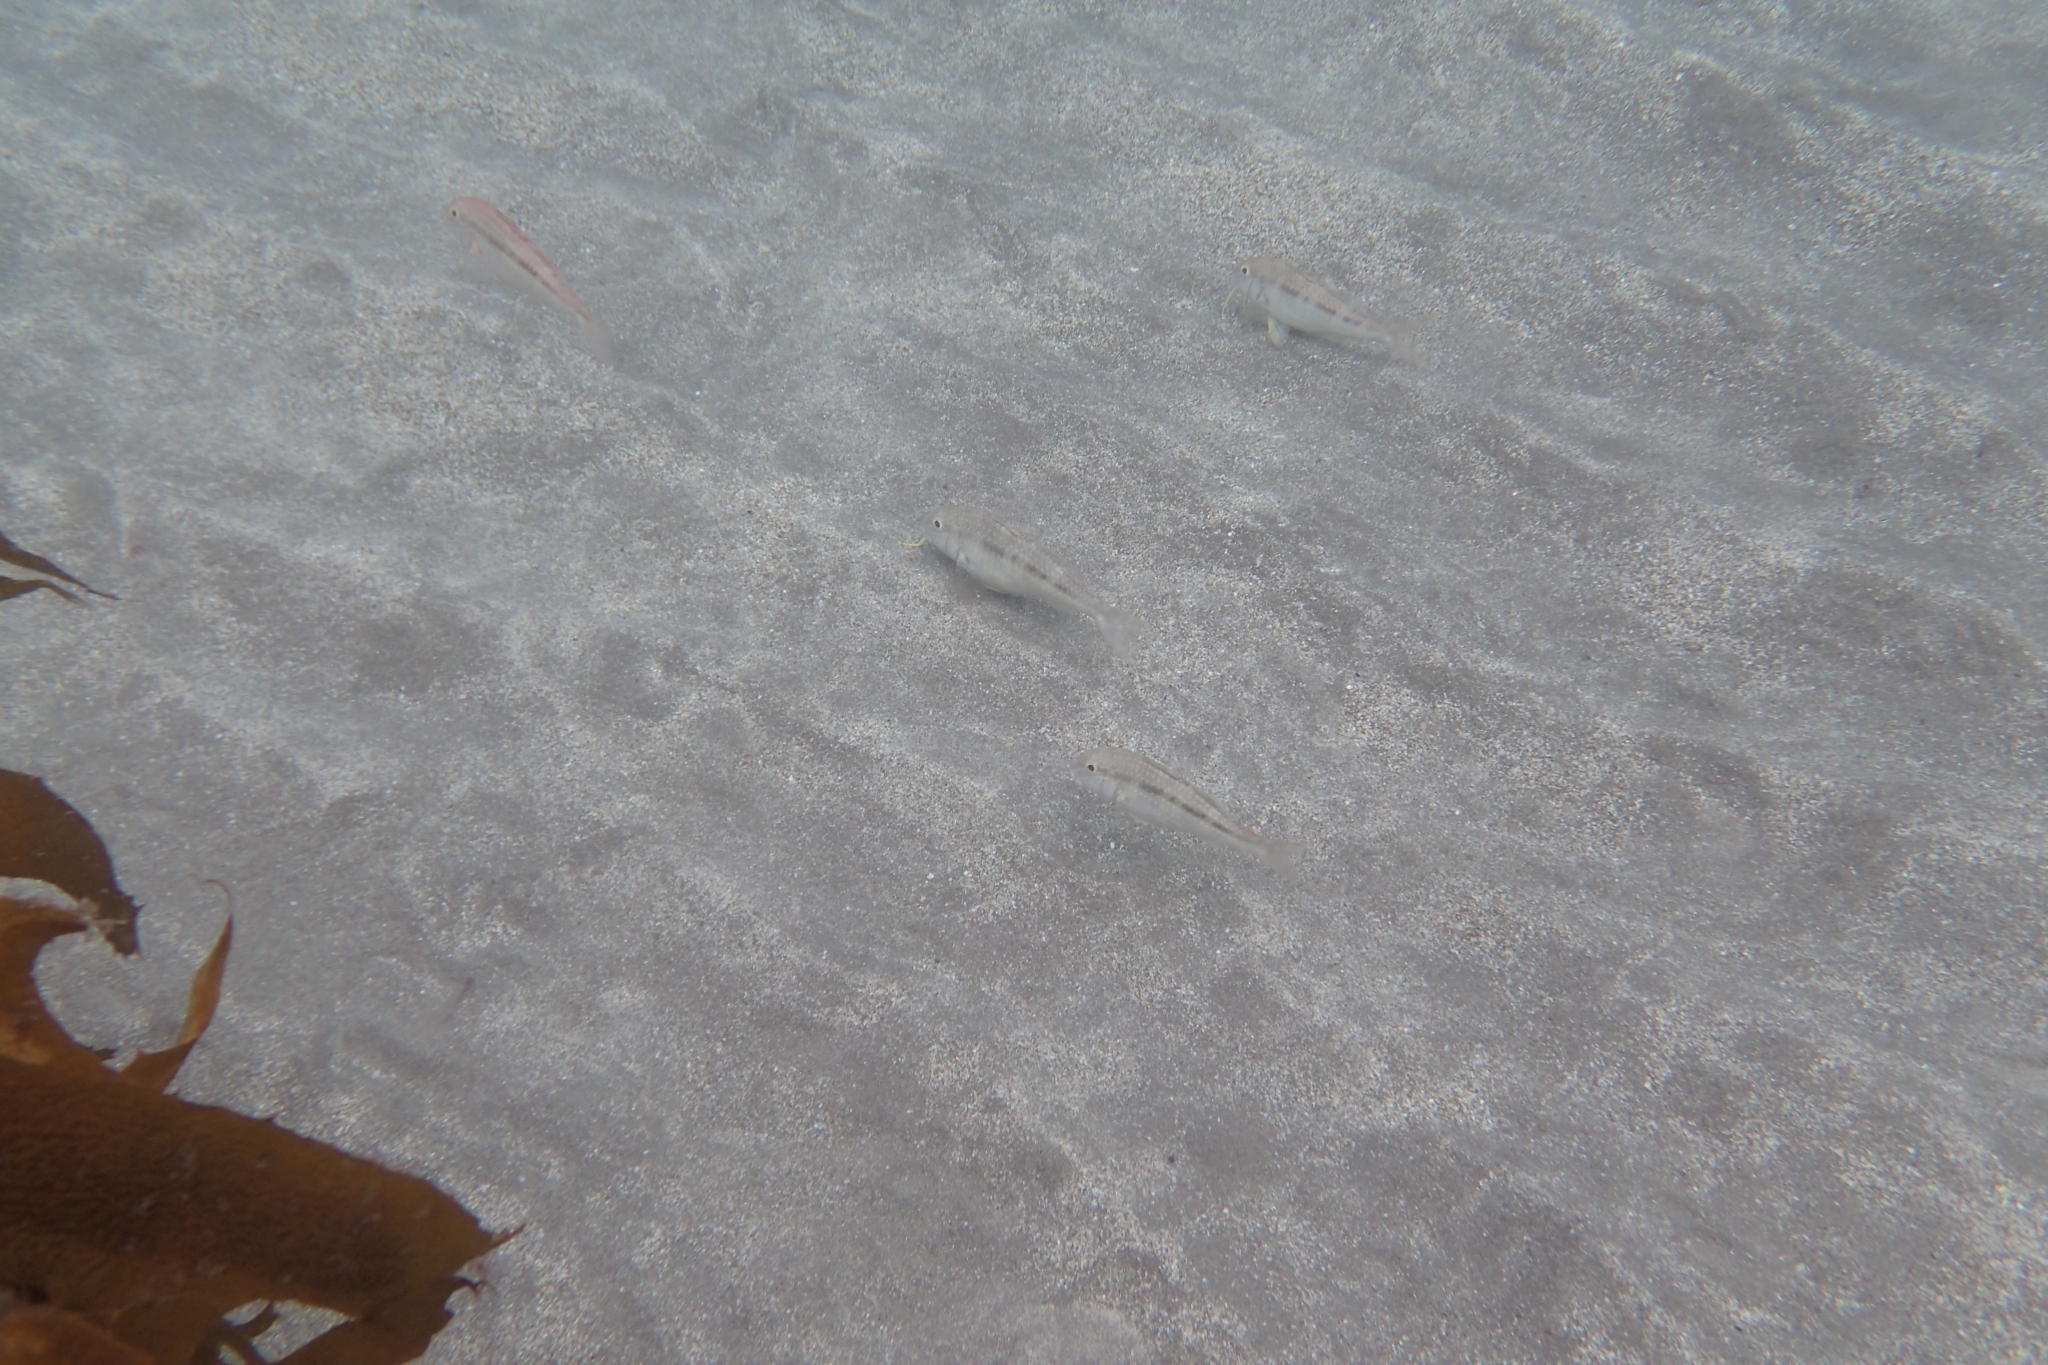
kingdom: Animalia
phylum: Chordata
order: Perciformes
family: Mullidae
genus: Upeneichthys
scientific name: Upeneichthys lineatus
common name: Red mullet
